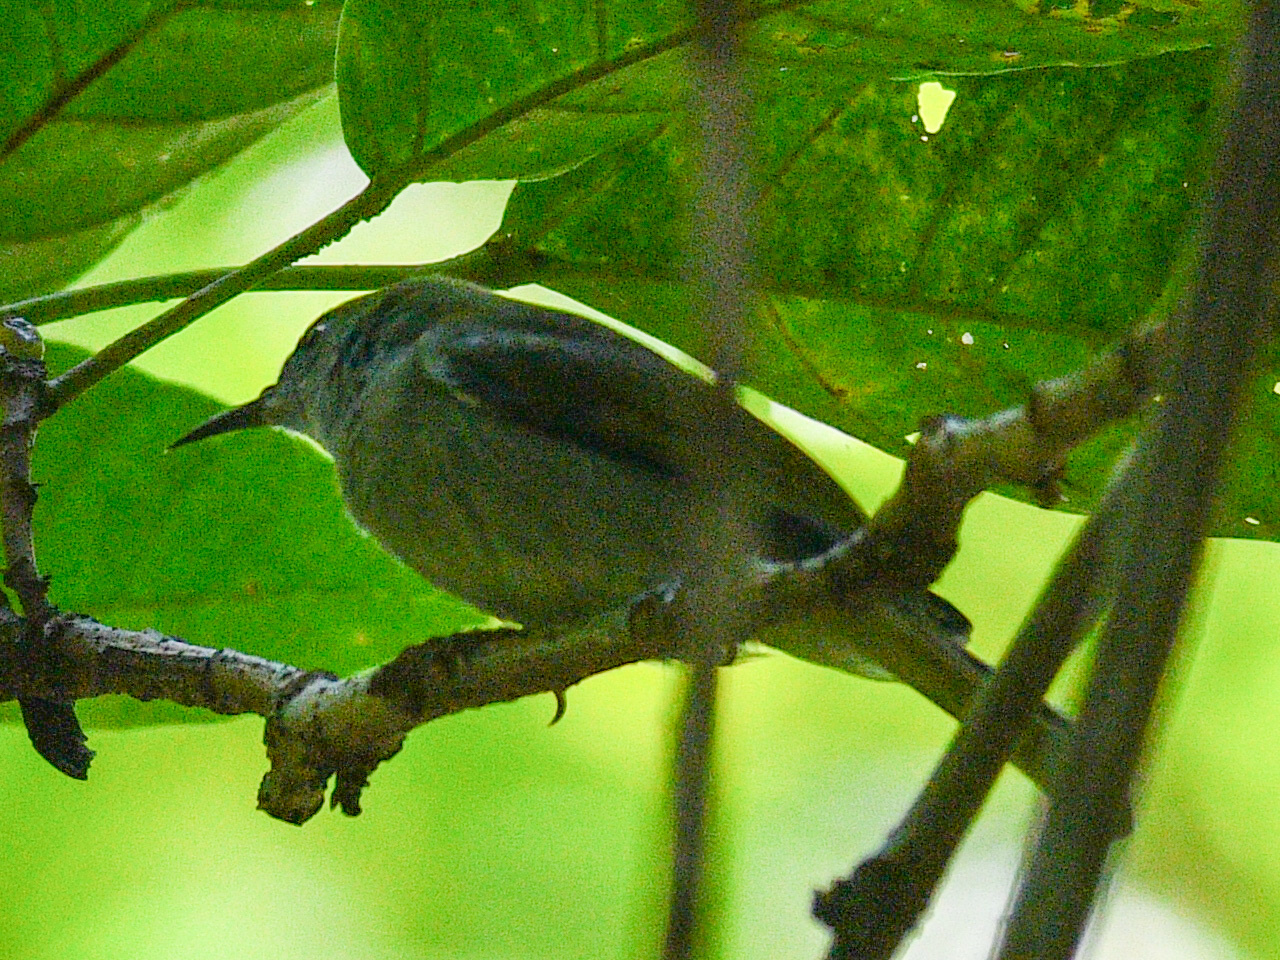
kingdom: Animalia
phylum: Chordata
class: Aves
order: Passeriformes
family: Nectariniidae
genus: Anthreptes
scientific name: Anthreptes simplex
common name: Plain sunbird
